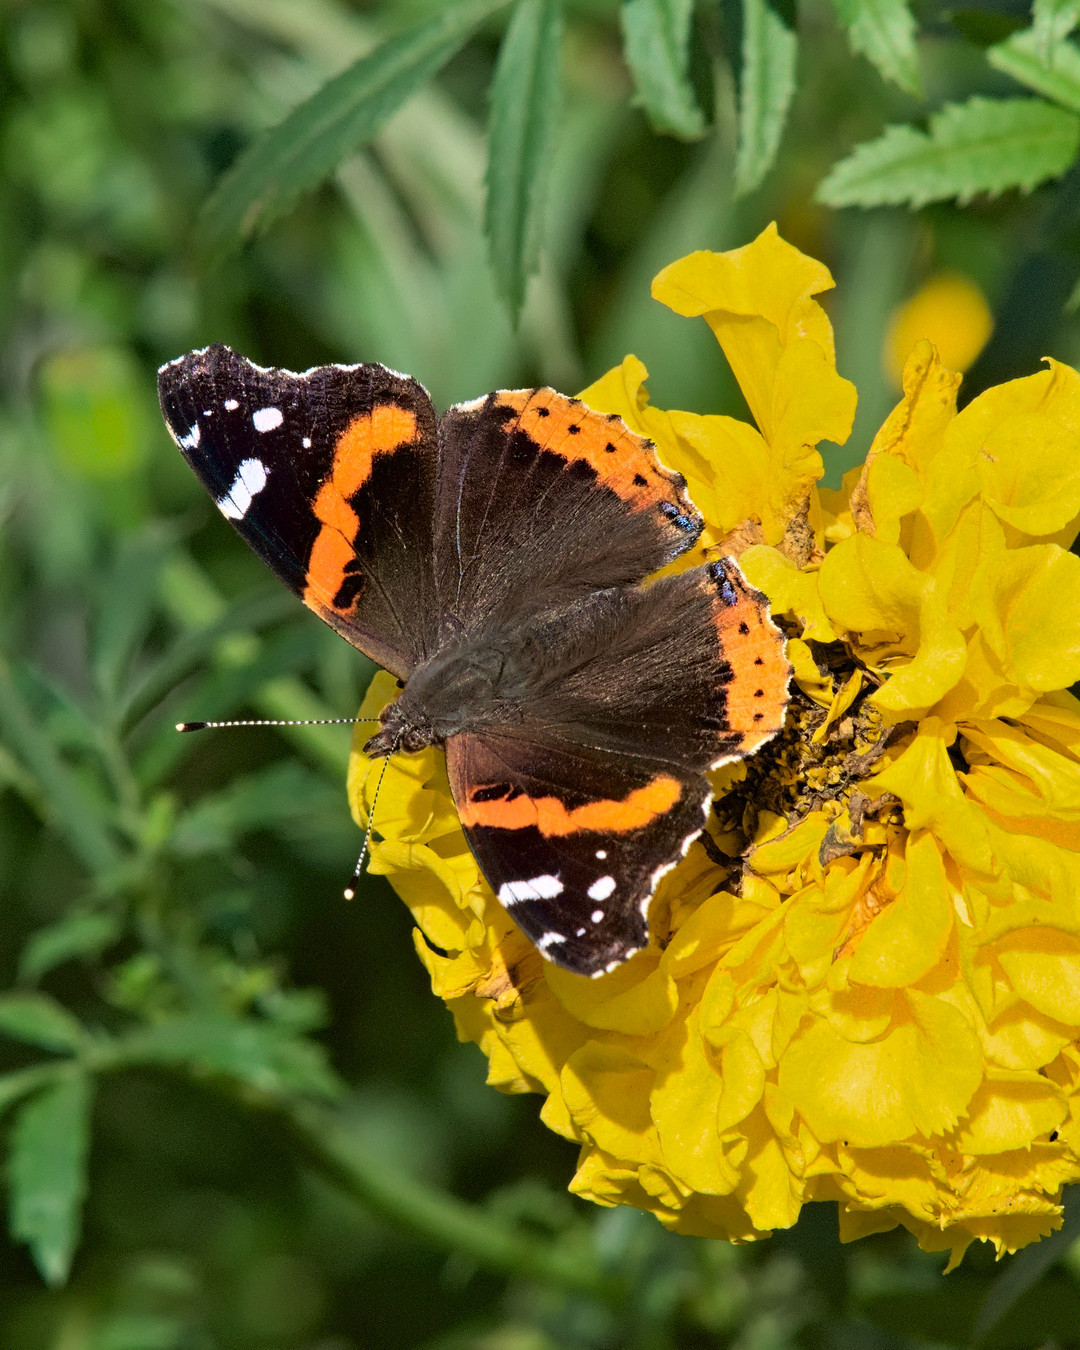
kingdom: Animalia
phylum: Arthropoda
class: Insecta
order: Lepidoptera
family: Nymphalidae
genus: Vanessa
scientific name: Vanessa atalanta
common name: Red admiral
